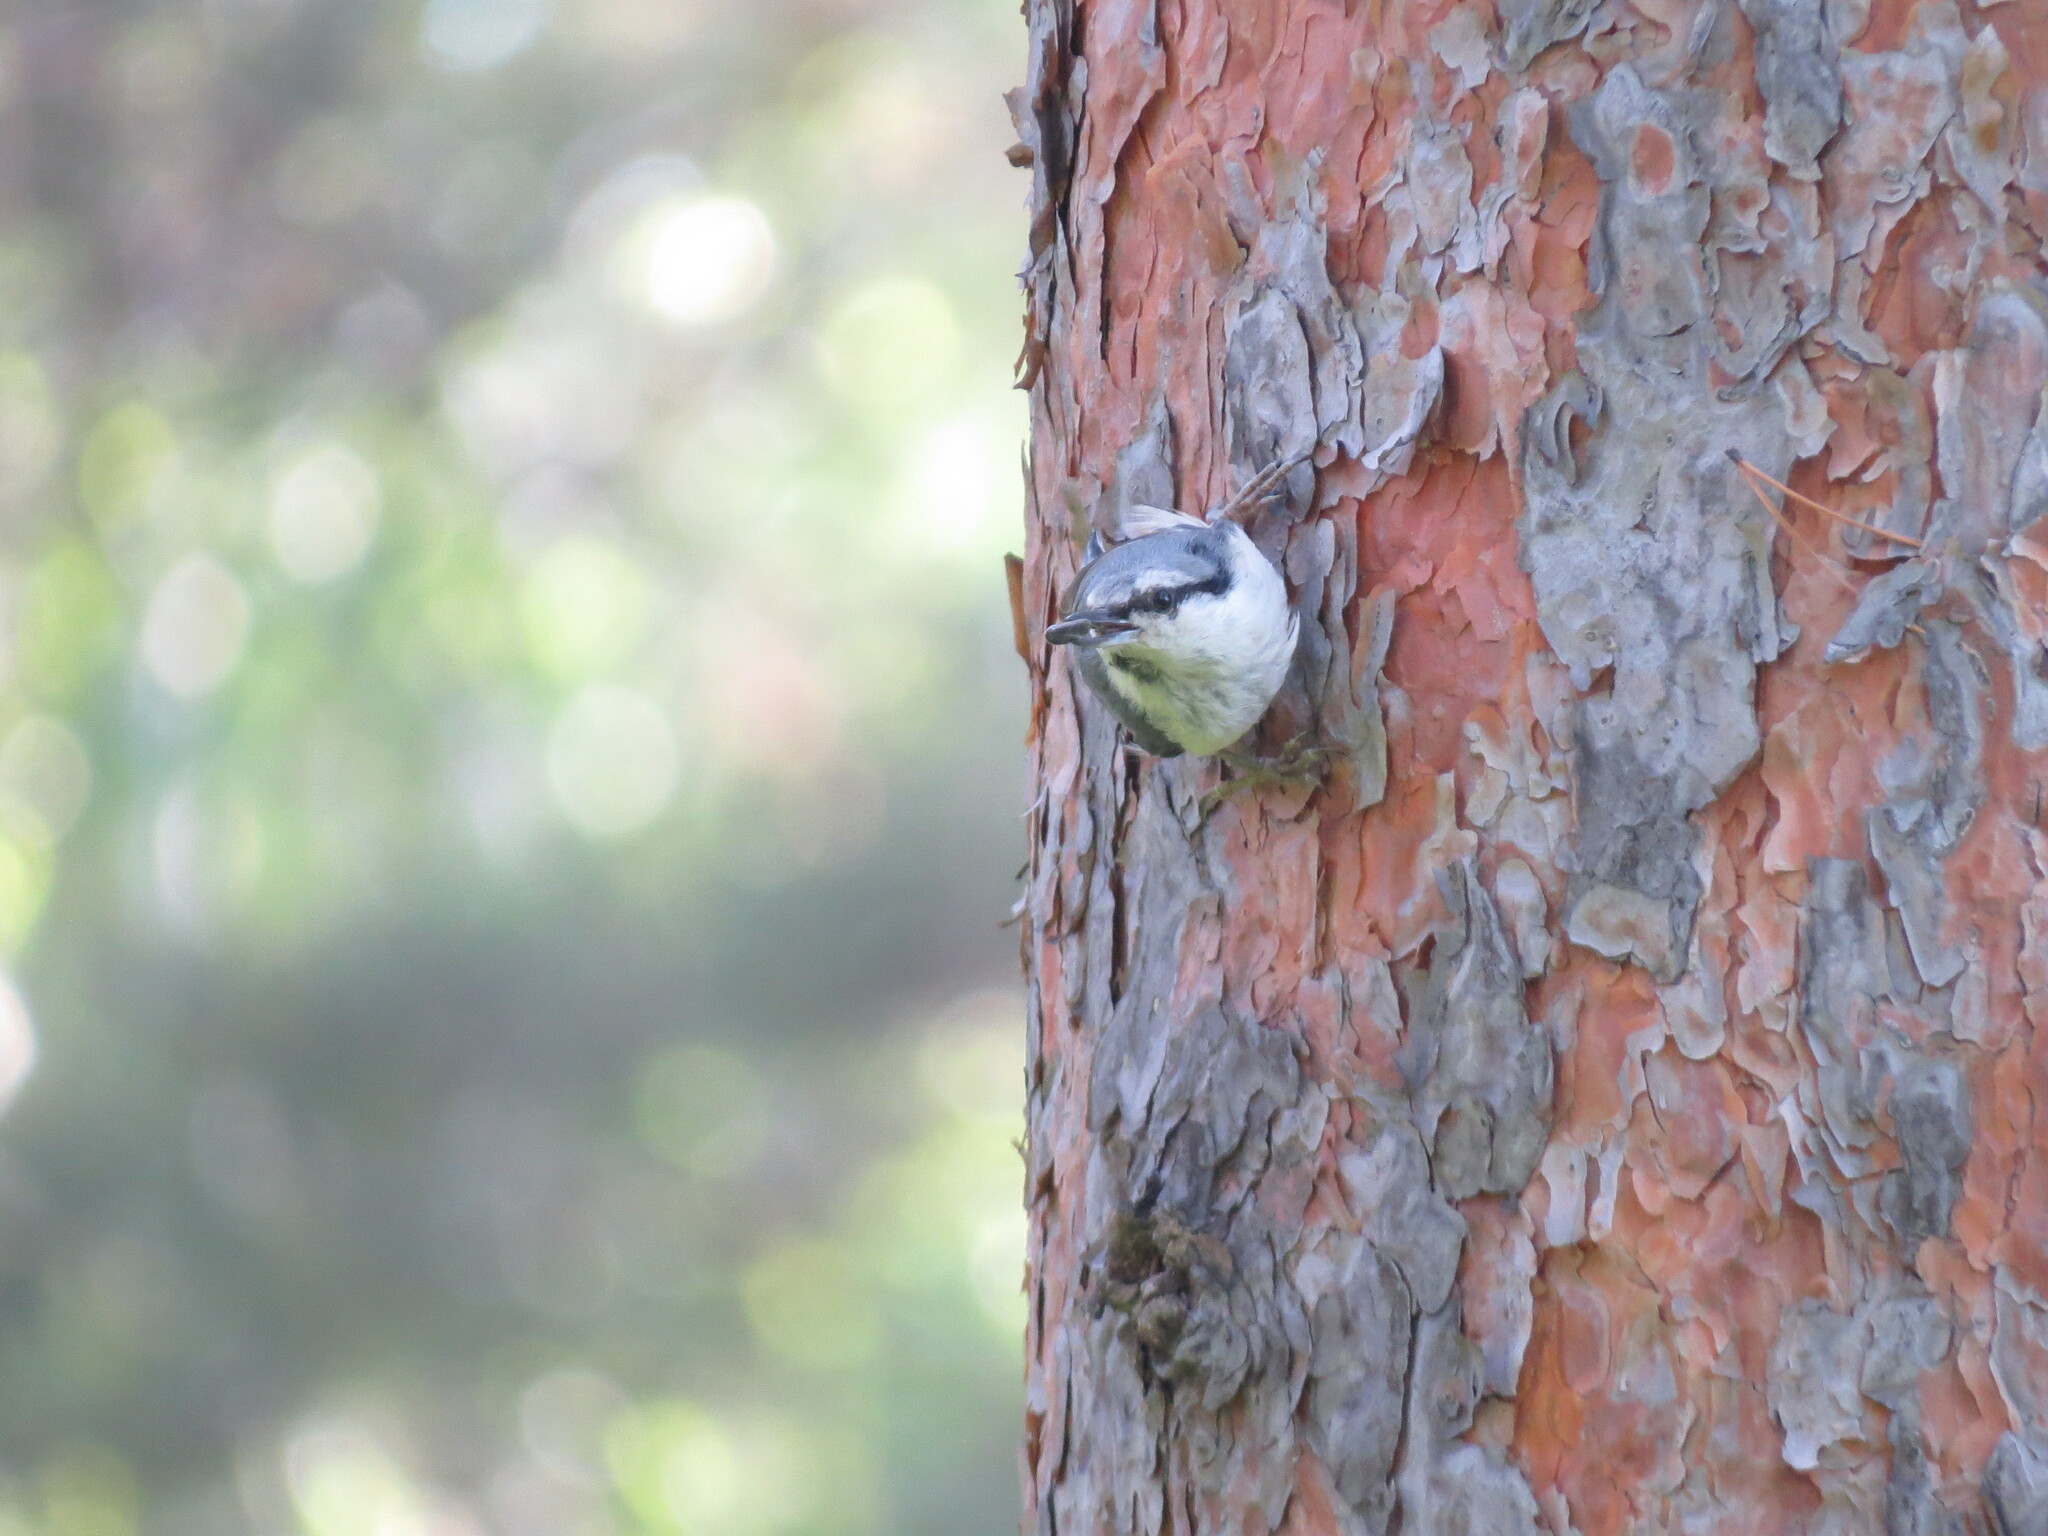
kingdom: Animalia
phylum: Chordata
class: Aves
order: Passeriformes
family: Sittidae
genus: Sitta
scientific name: Sitta europaea
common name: Eurasian nuthatch
